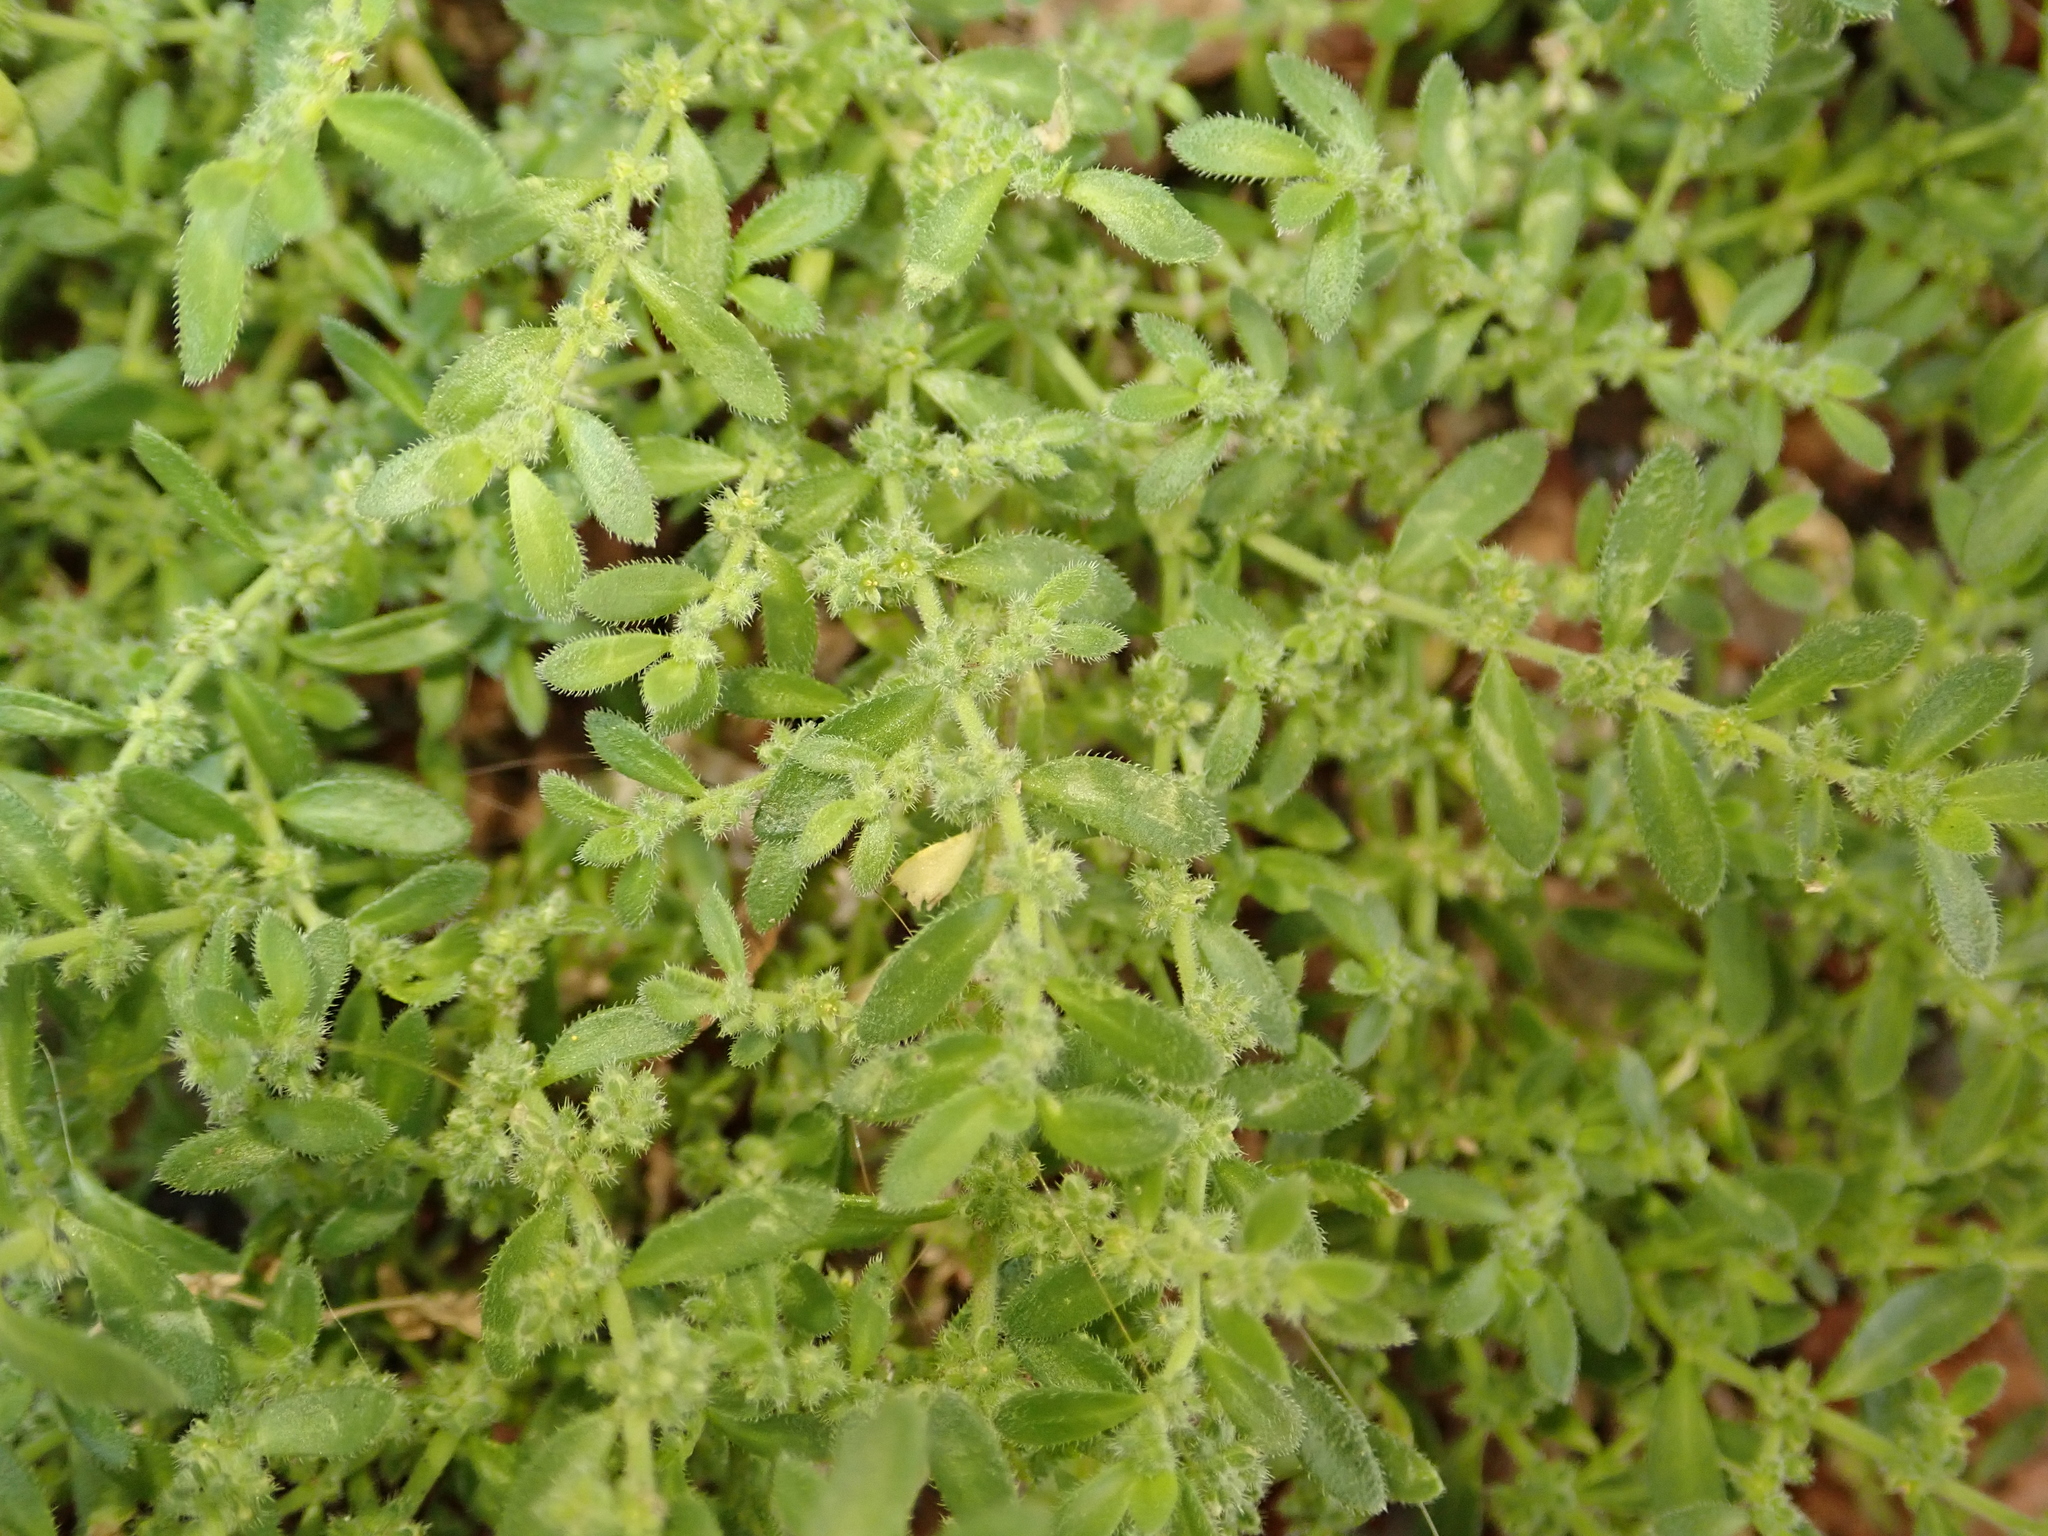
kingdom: Plantae
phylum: Tracheophyta
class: Magnoliopsida
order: Caryophyllales
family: Caryophyllaceae
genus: Herniaria
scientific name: Herniaria hirsuta
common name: Hairy rupturewort
